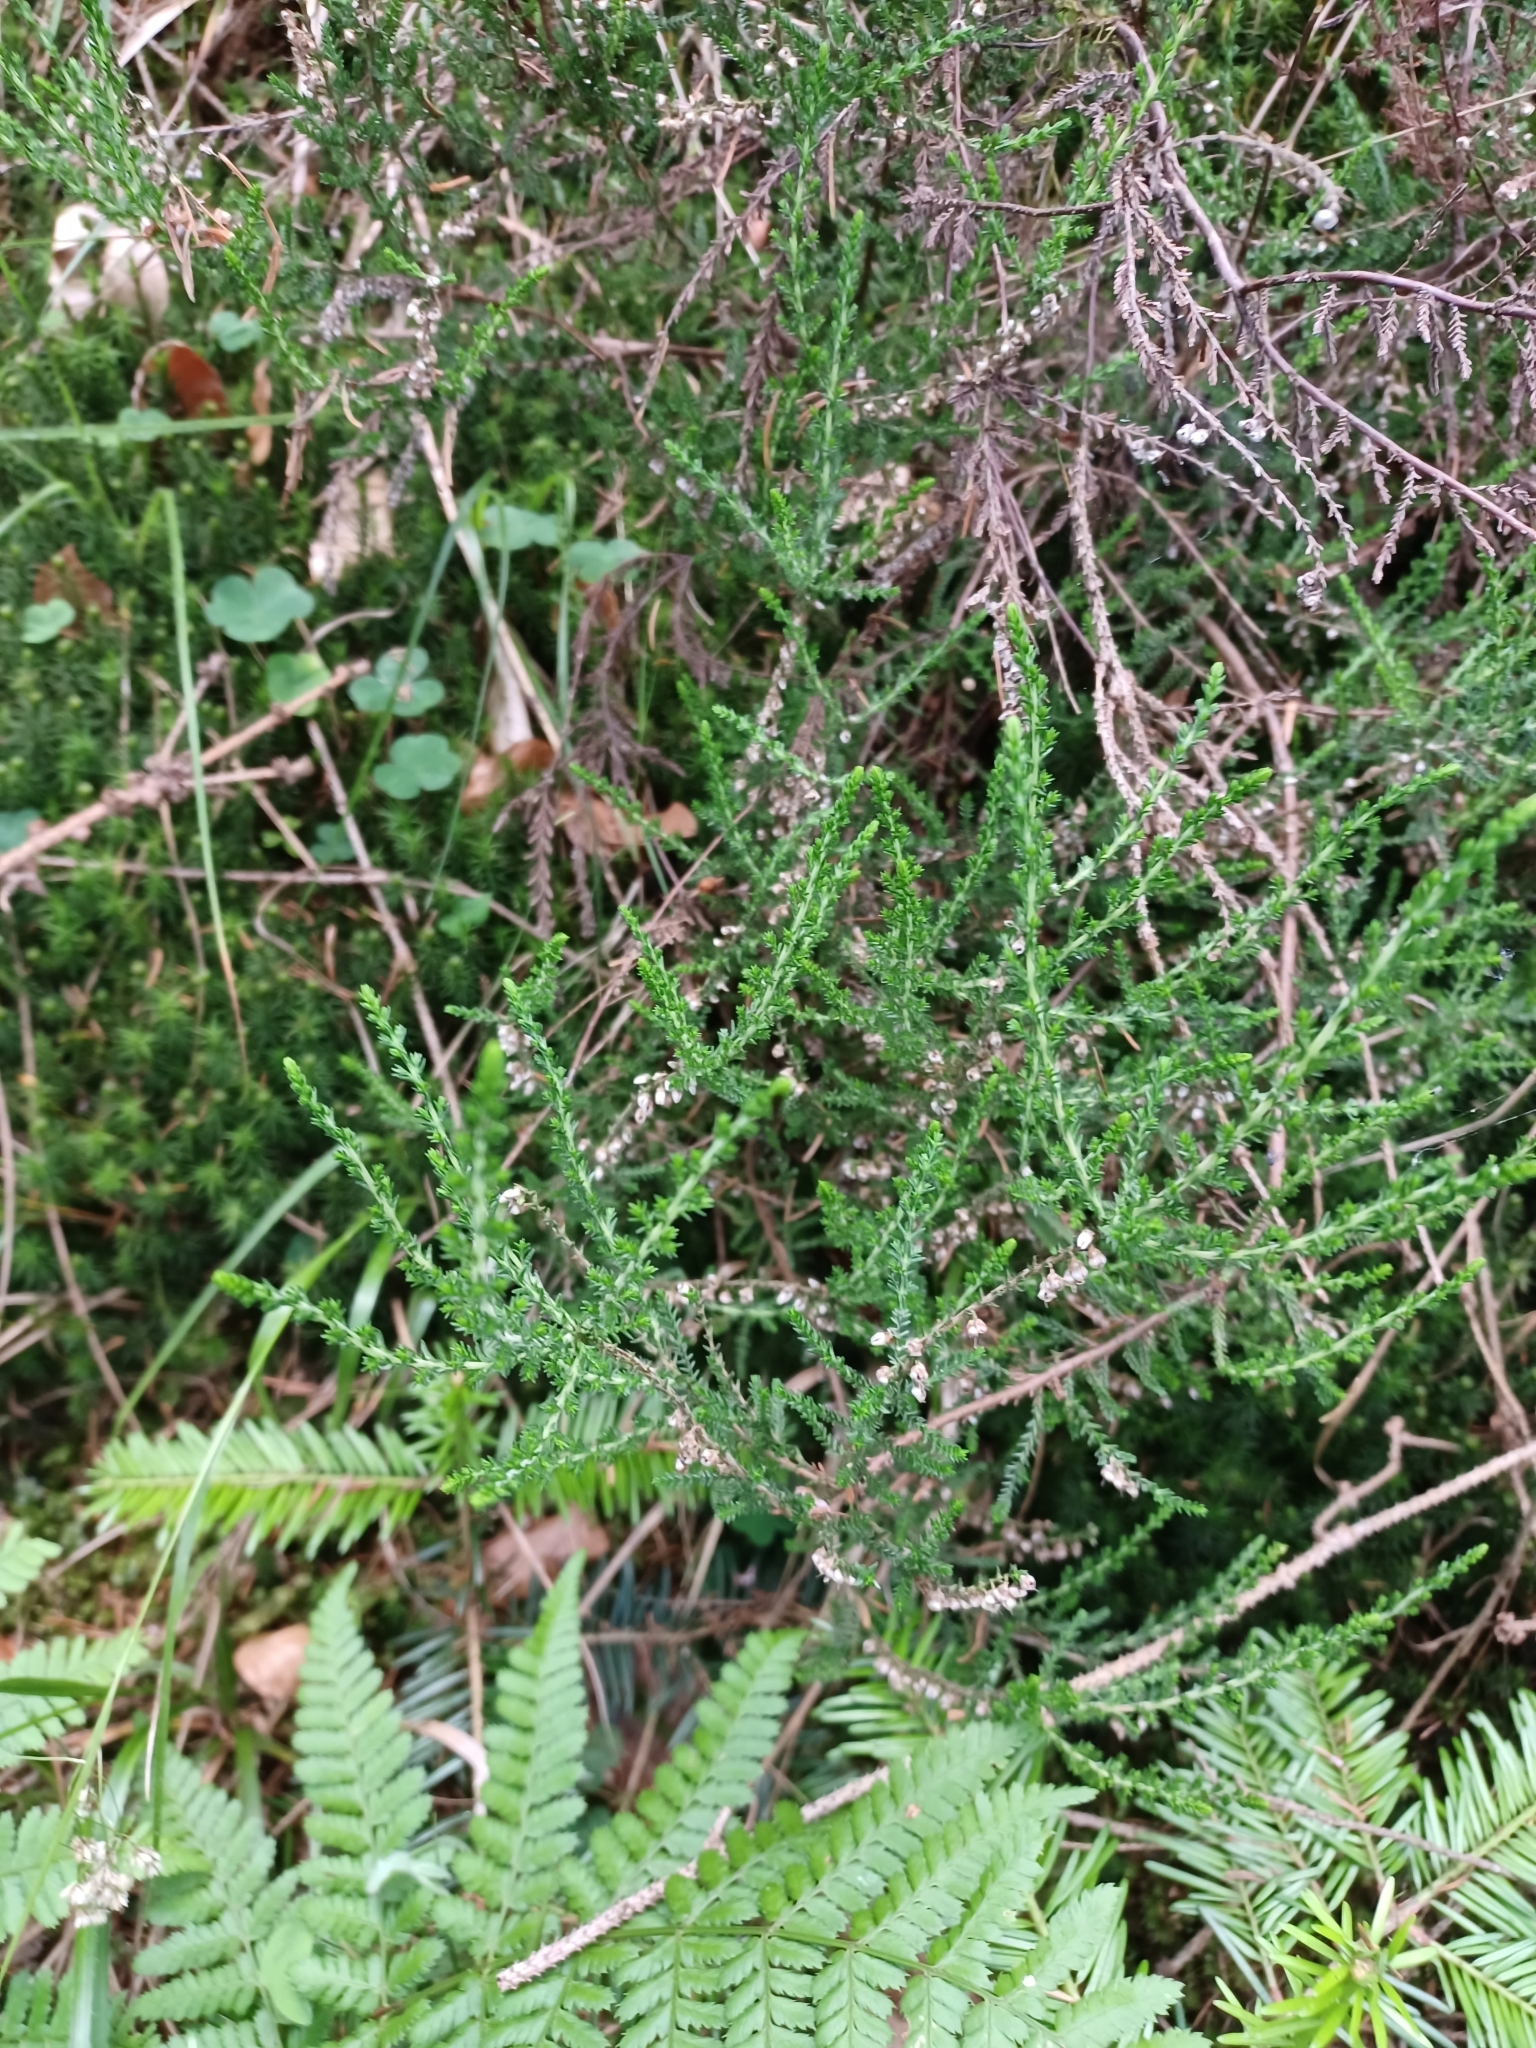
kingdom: Plantae
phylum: Tracheophyta
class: Magnoliopsida
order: Ericales
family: Ericaceae
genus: Calluna
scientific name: Calluna vulgaris
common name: Heather
